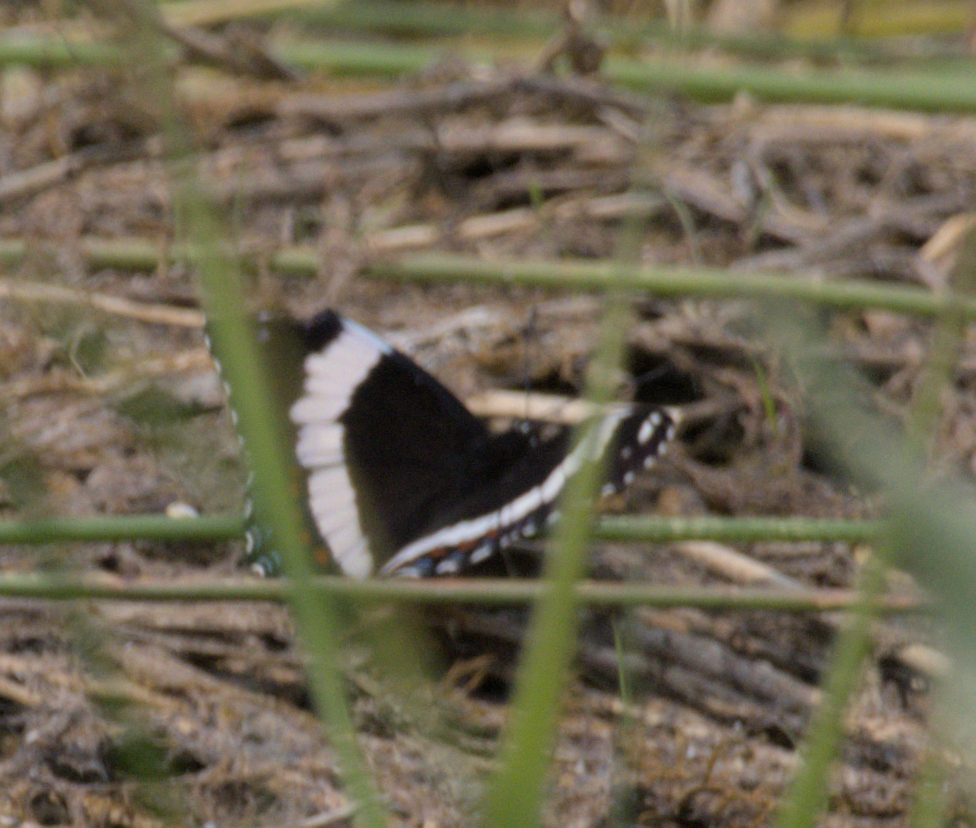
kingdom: Animalia
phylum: Arthropoda
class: Insecta
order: Lepidoptera
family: Nymphalidae
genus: Limenitis
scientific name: Limenitis arthemis
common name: Red-spotted admiral
